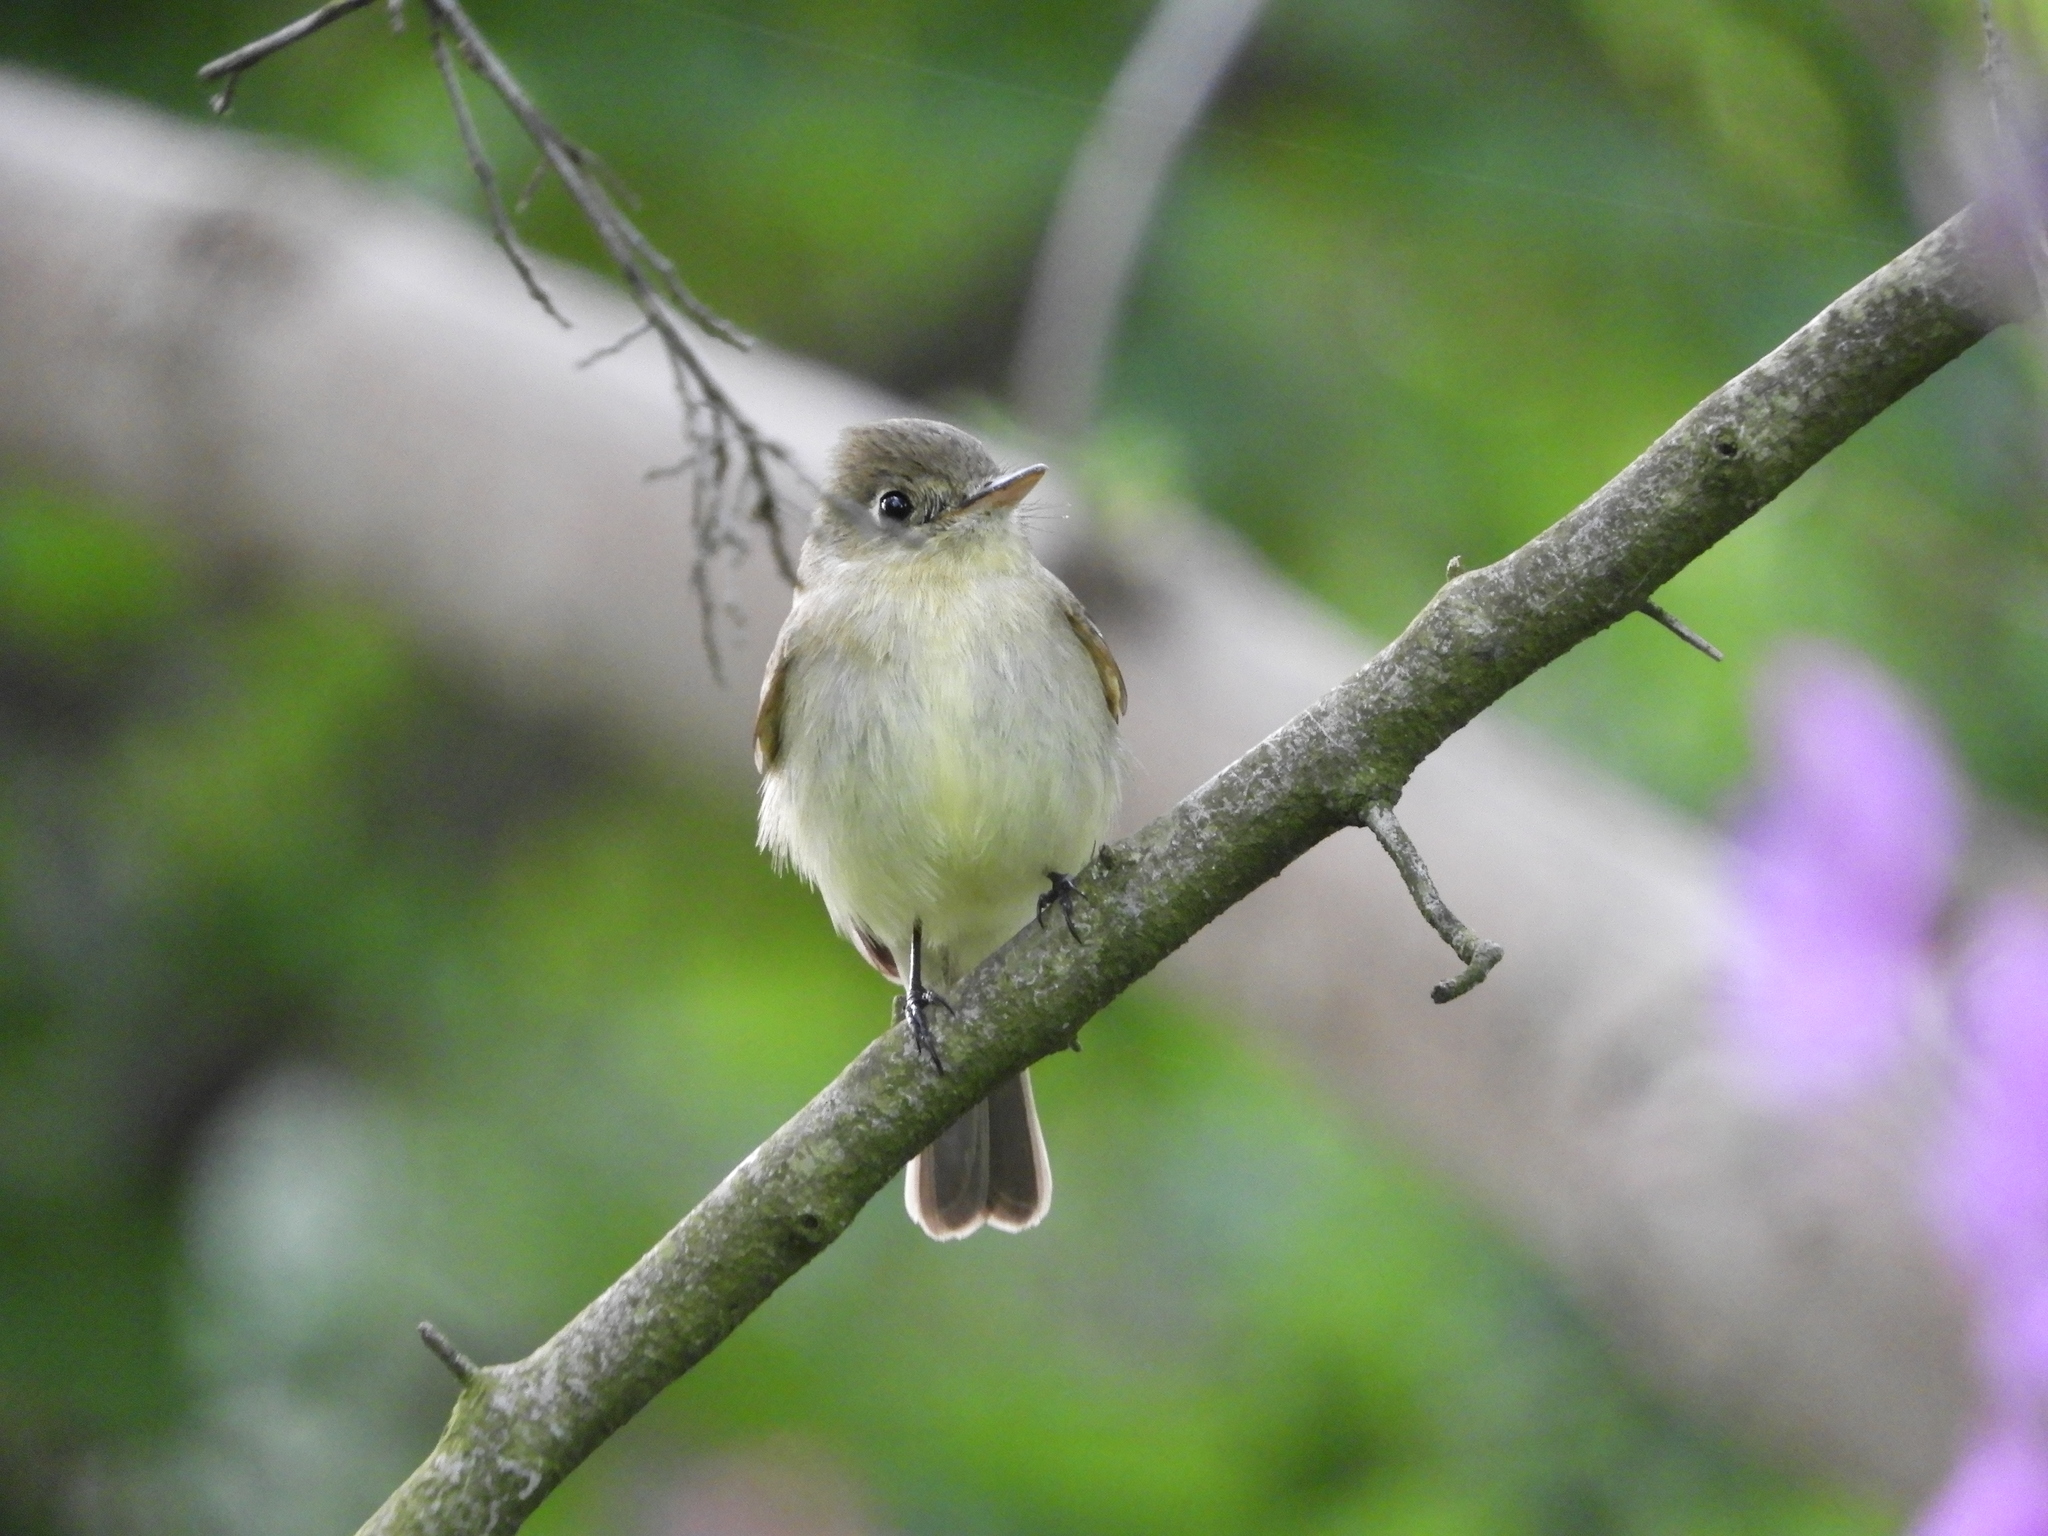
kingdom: Animalia
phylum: Chordata
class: Aves
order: Passeriformes
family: Tyrannidae
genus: Empidonax
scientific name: Empidonax difficilis
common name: Pacific-slope flycatcher
